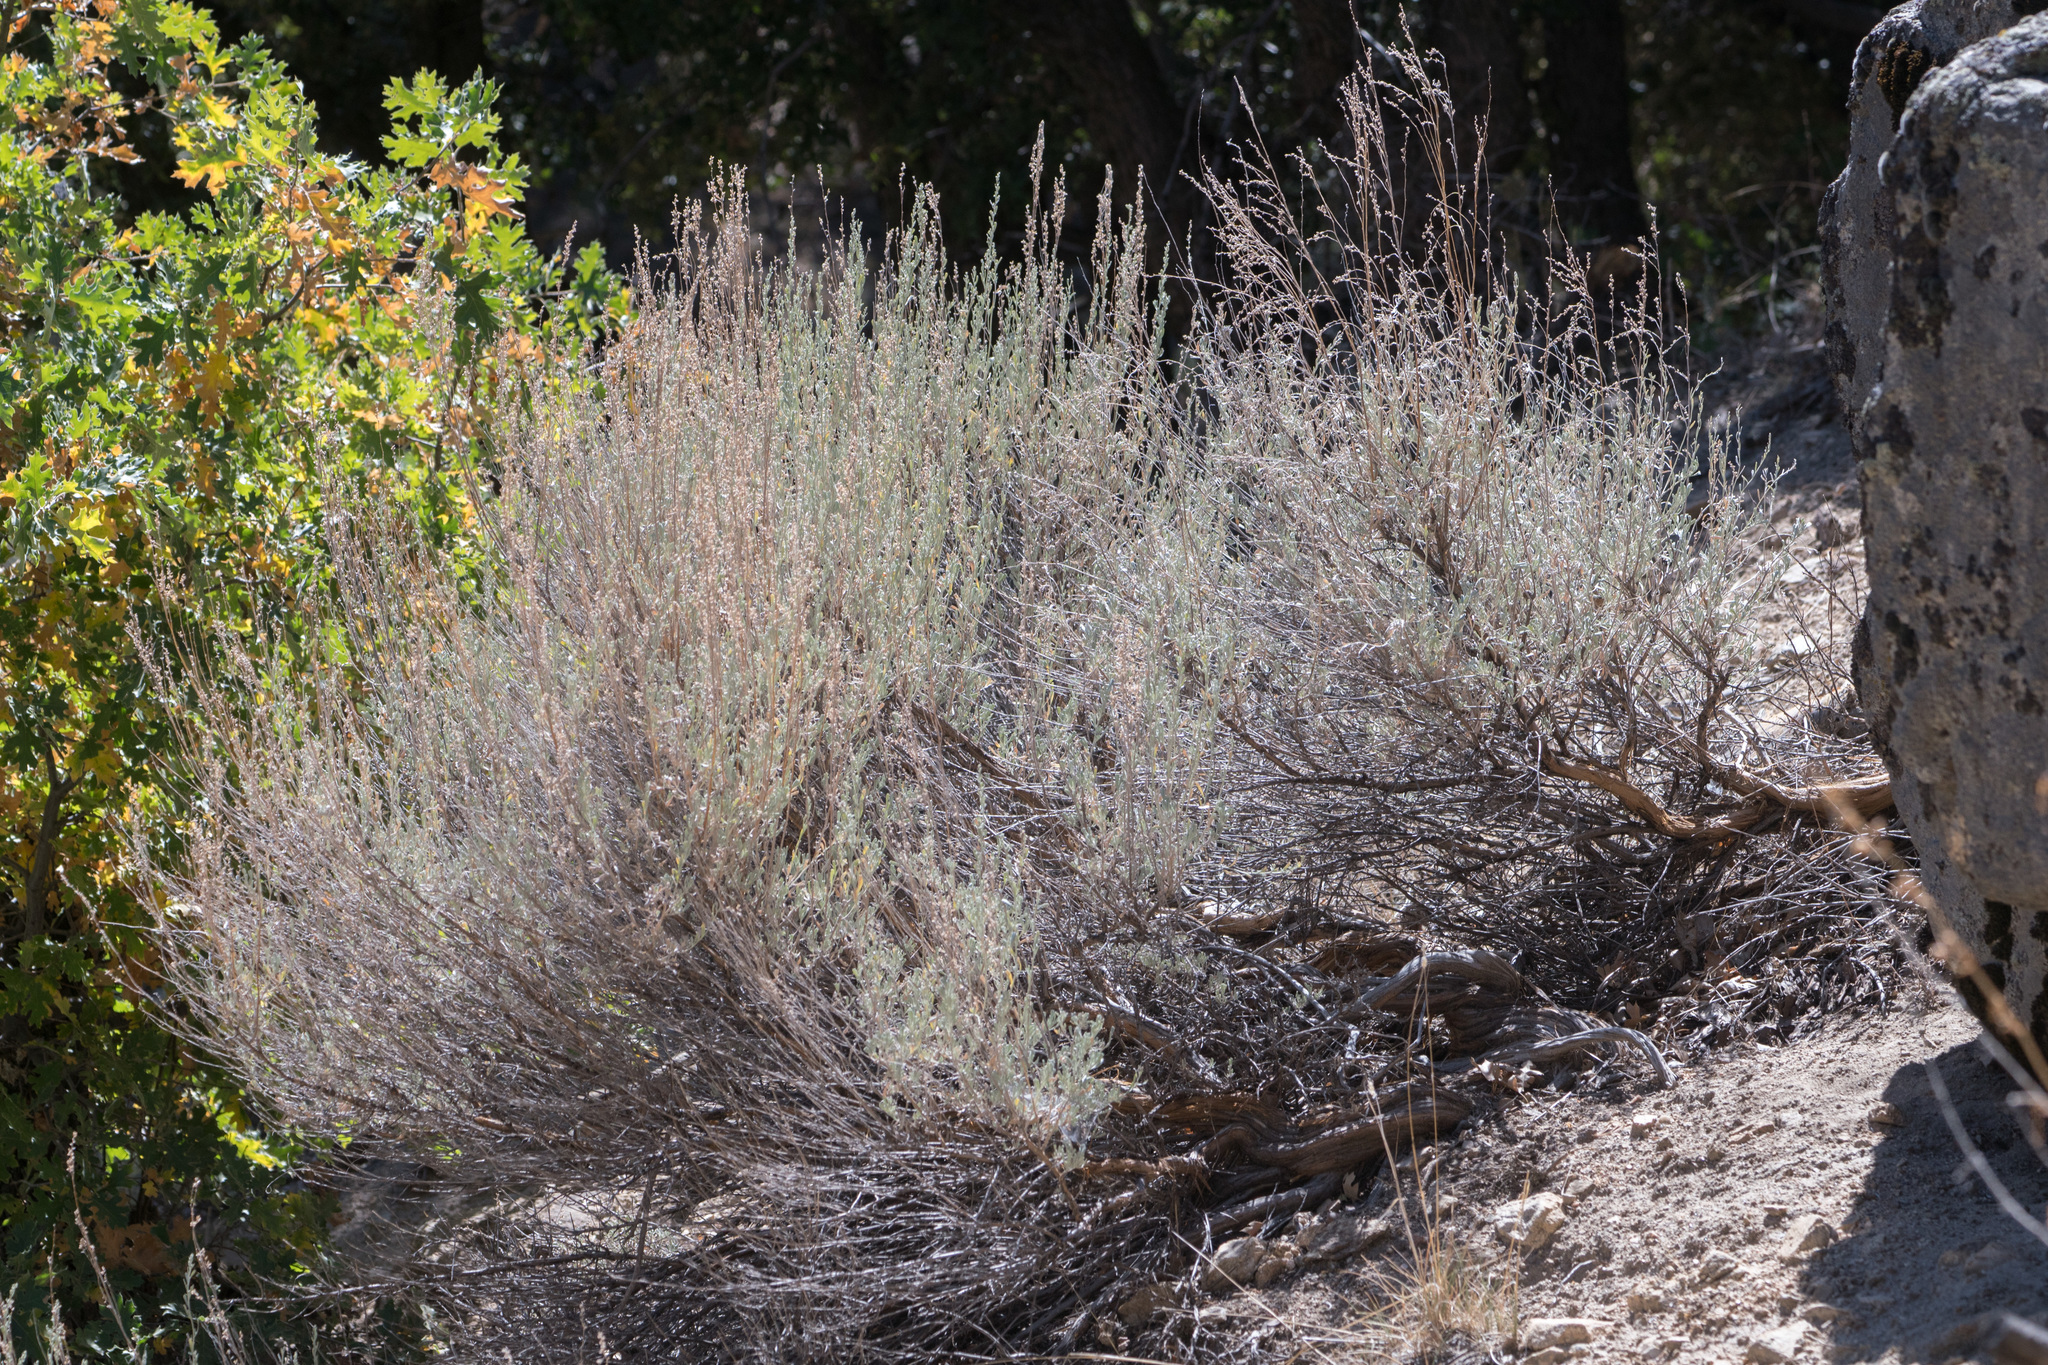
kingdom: Plantae
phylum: Tracheophyta
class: Magnoliopsida
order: Asterales
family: Asteraceae
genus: Artemisia
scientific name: Artemisia tridentata
